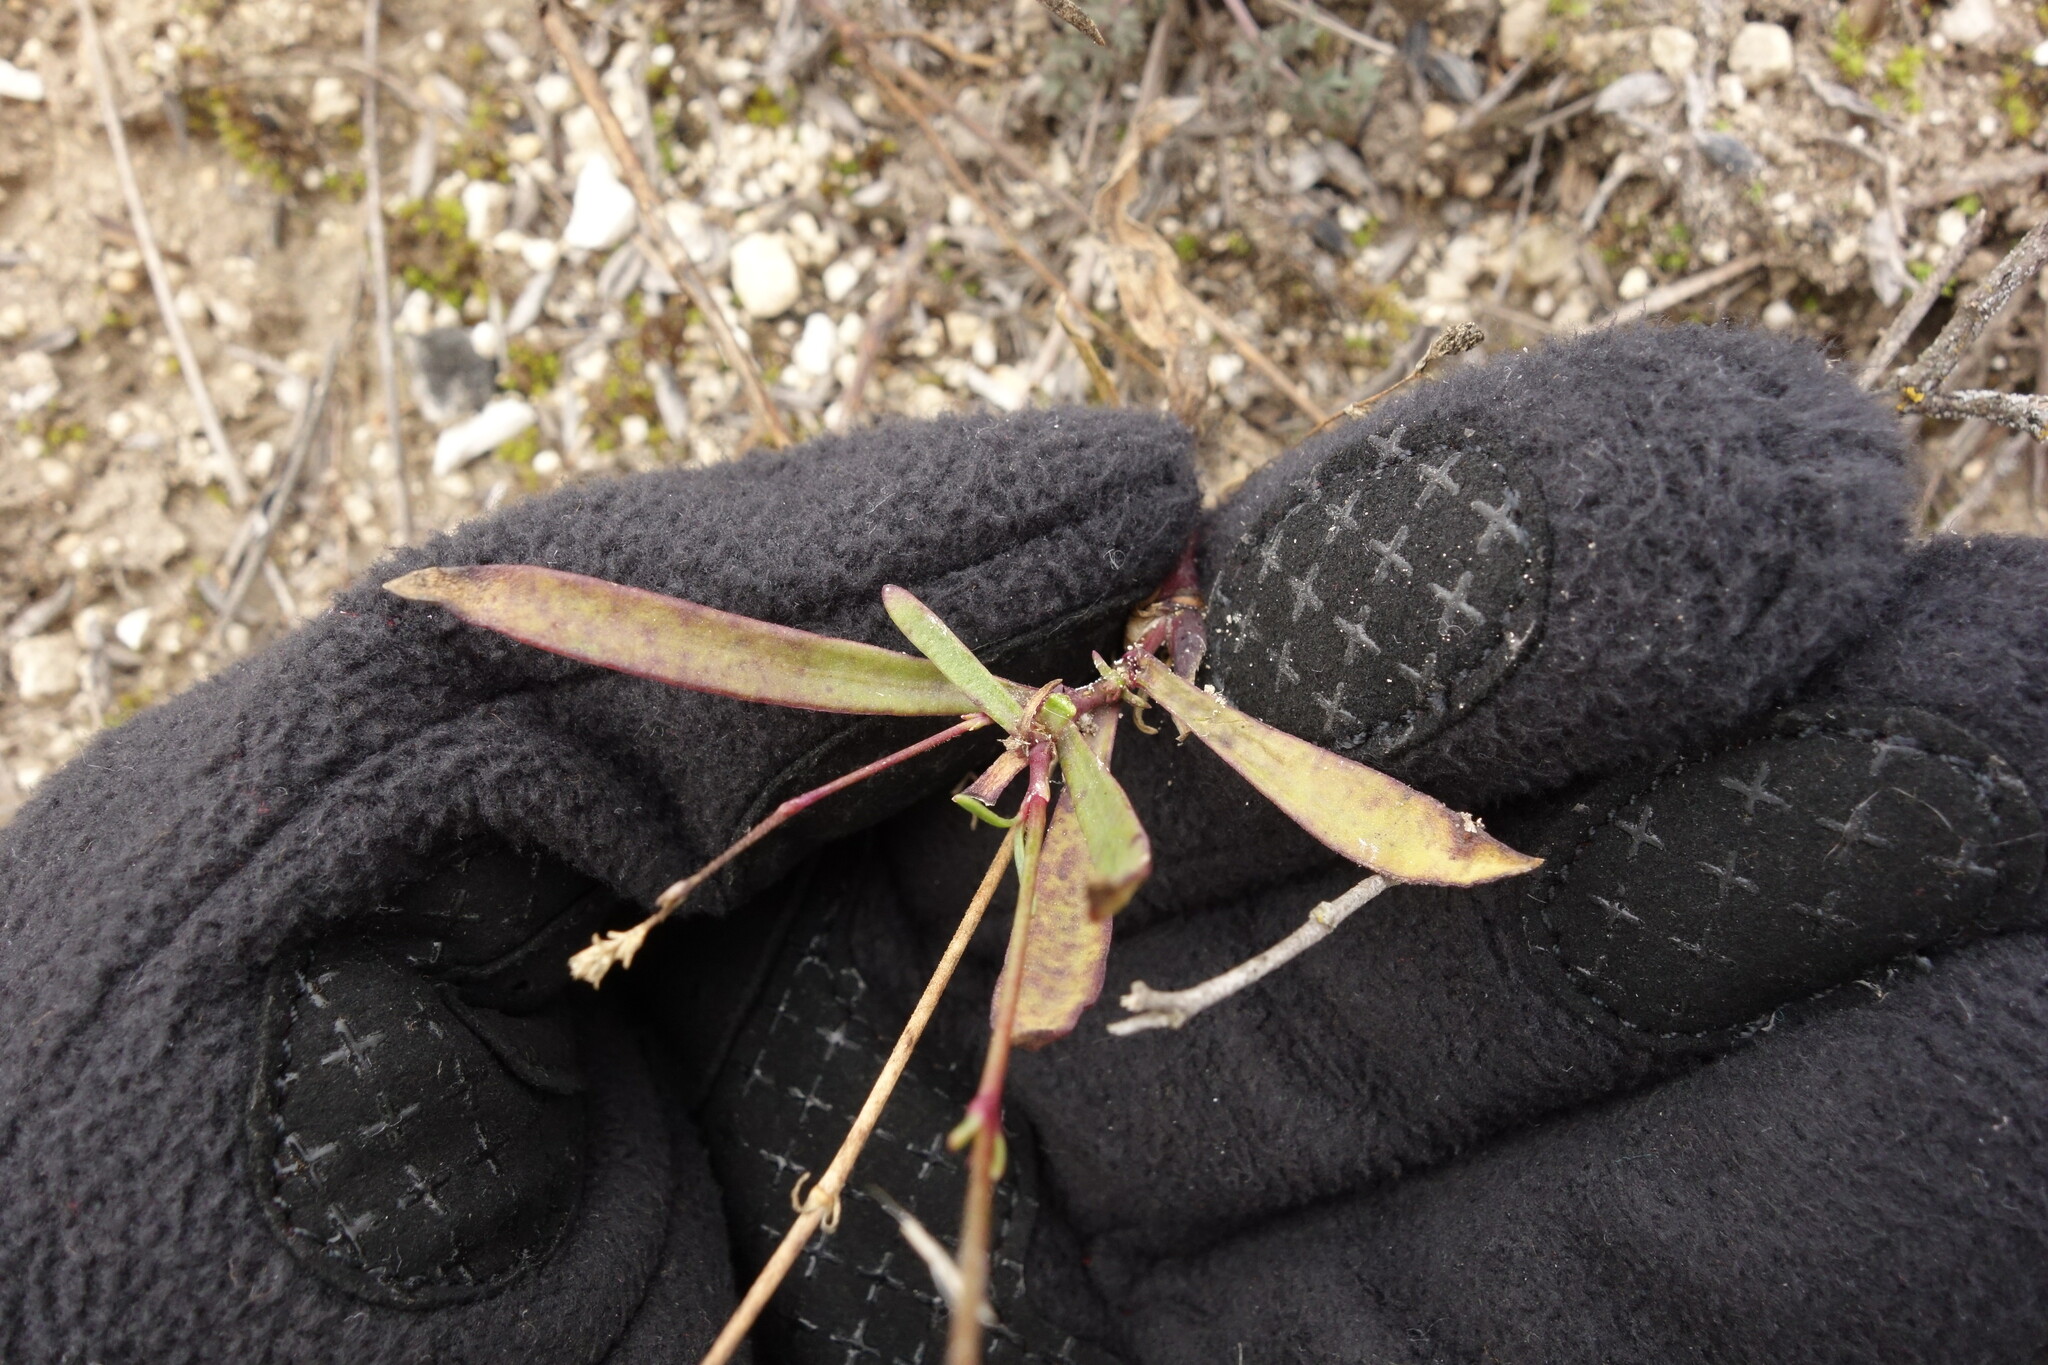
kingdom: Plantae
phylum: Tracheophyta
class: Magnoliopsida
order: Caryophyllales
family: Caryophyllaceae
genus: Gypsophila
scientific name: Gypsophila altissima
